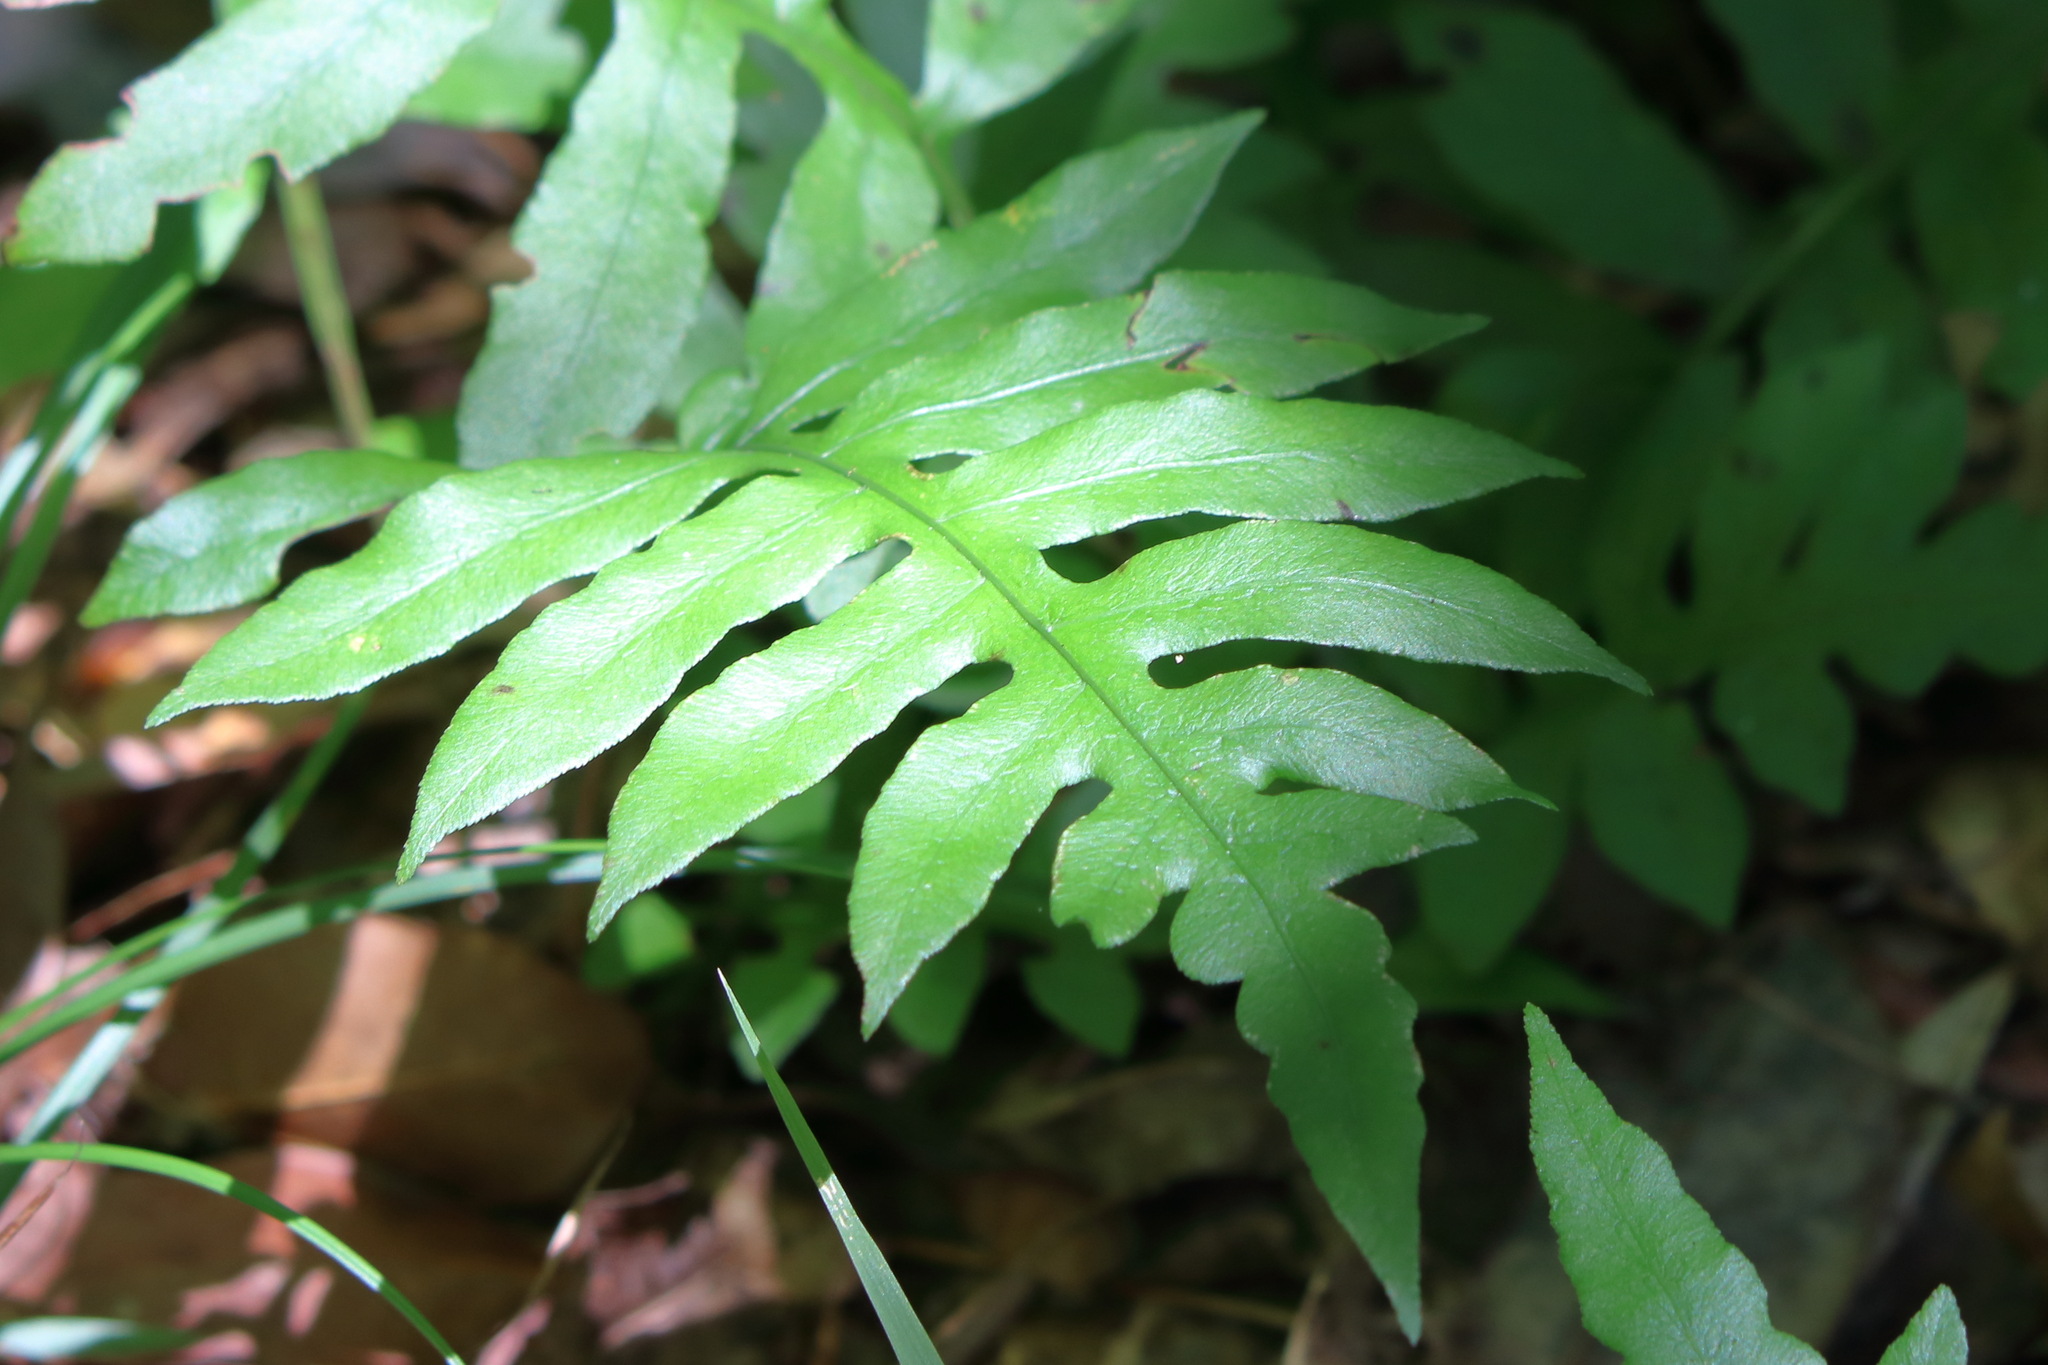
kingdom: Plantae
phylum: Tracheophyta
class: Polypodiopsida
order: Polypodiales
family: Blechnaceae
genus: Lorinseria
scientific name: Lorinseria areolata
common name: Dwarf chain fern
